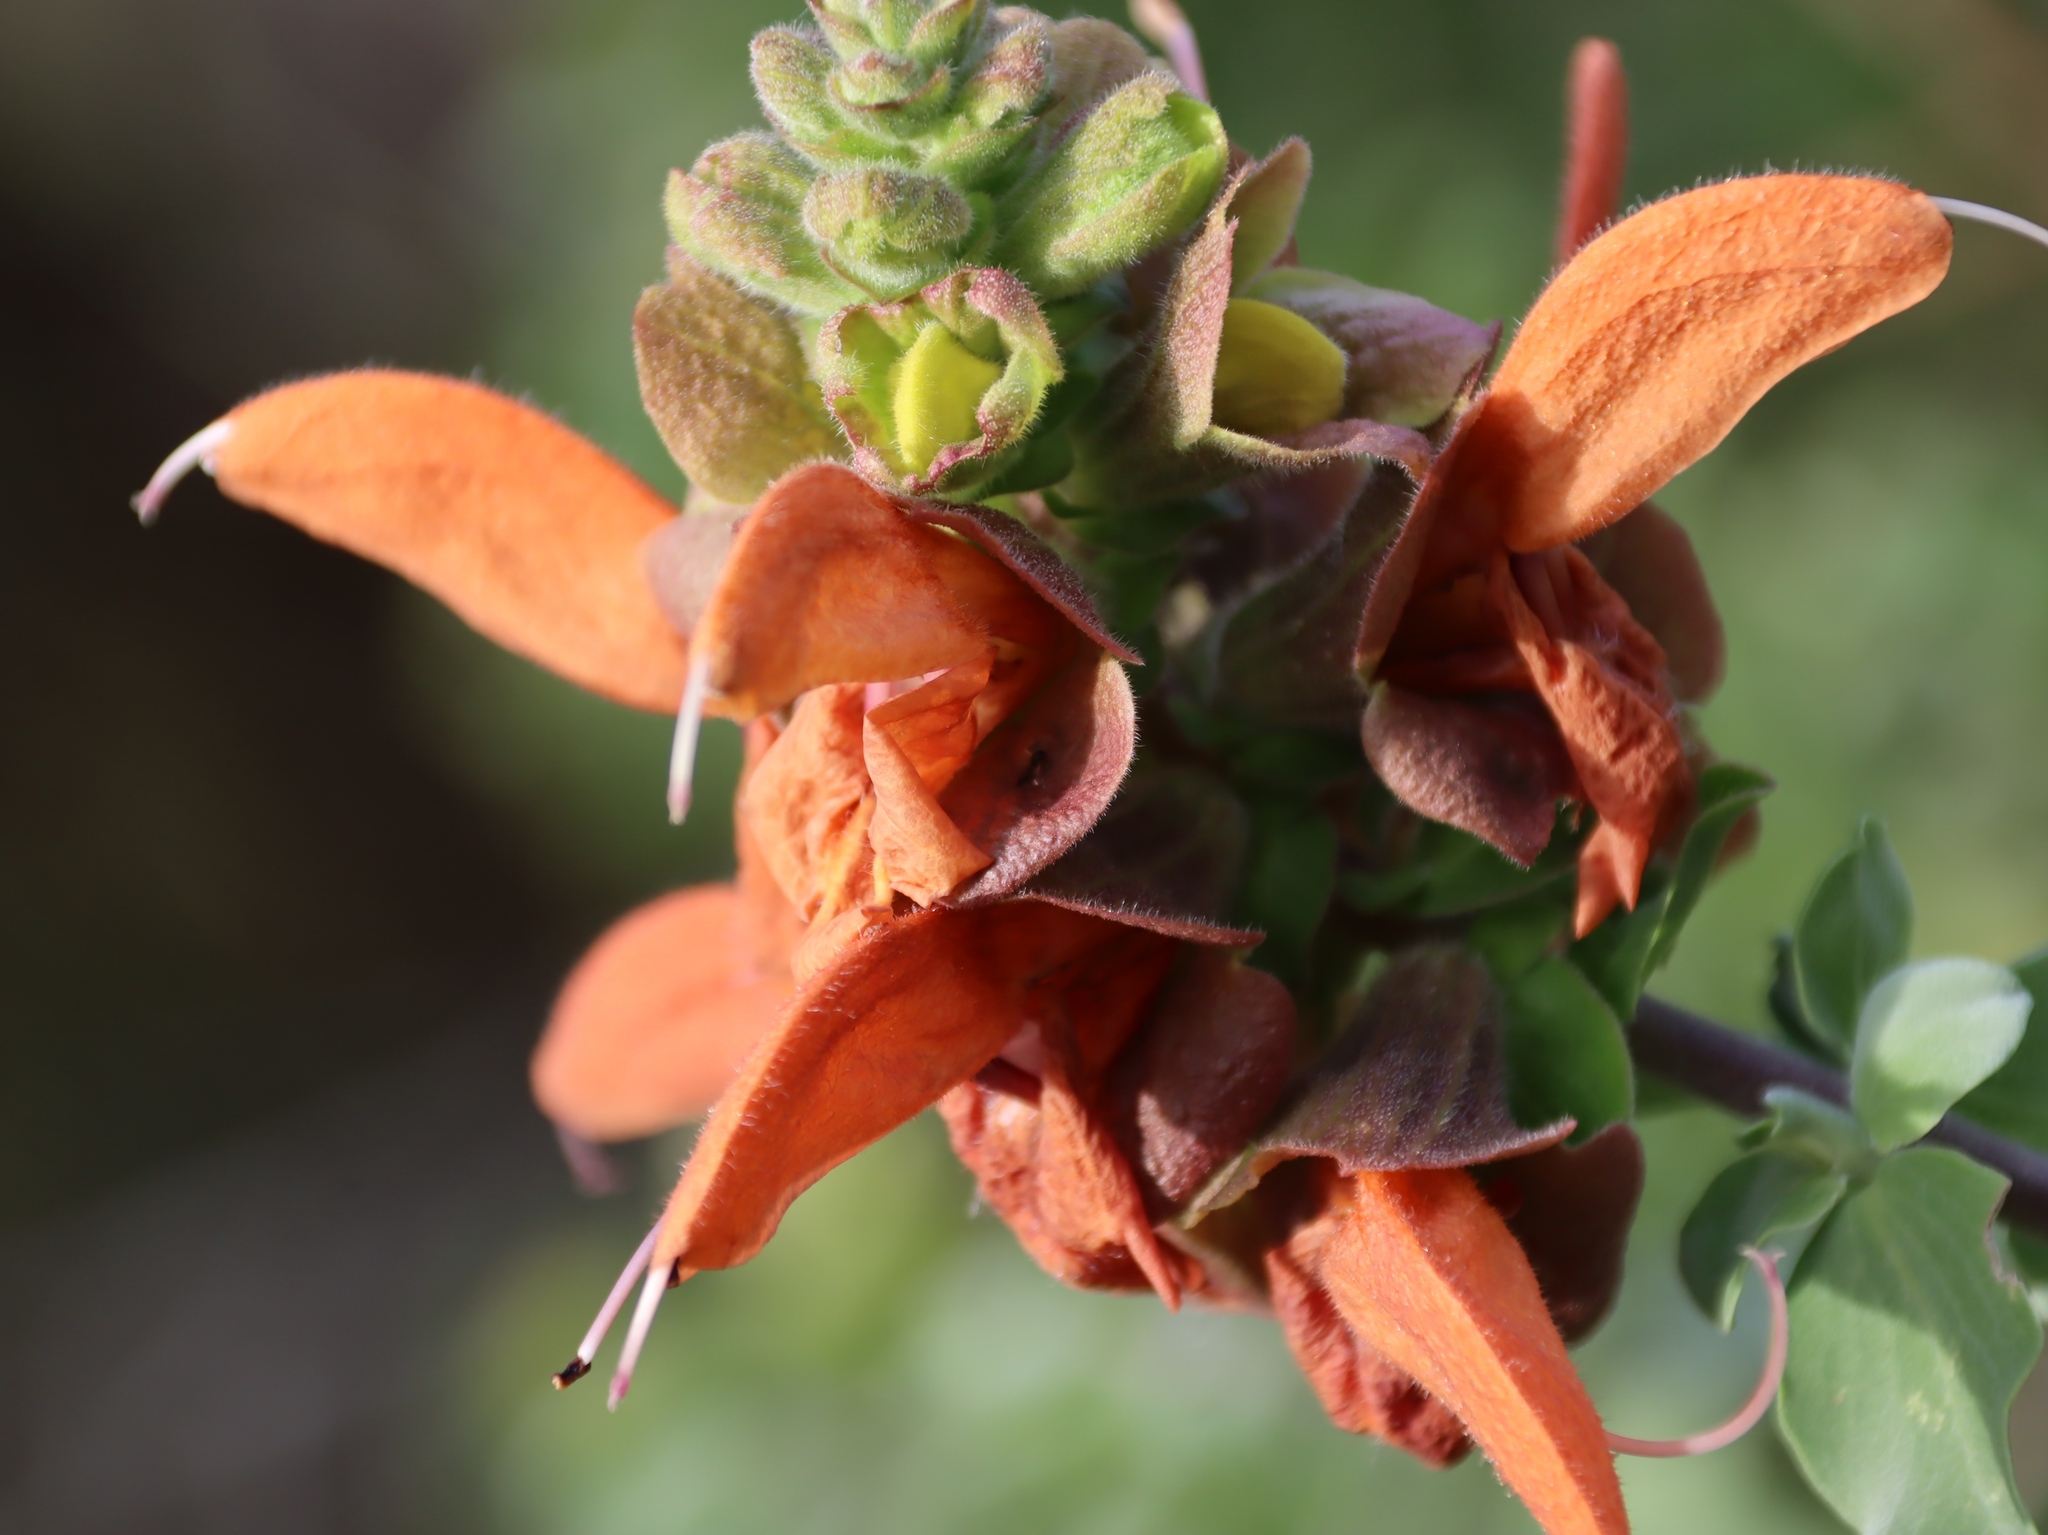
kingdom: Plantae
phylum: Tracheophyta
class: Magnoliopsida
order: Lamiales
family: Lamiaceae
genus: Salvia
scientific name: Salvia aurea
